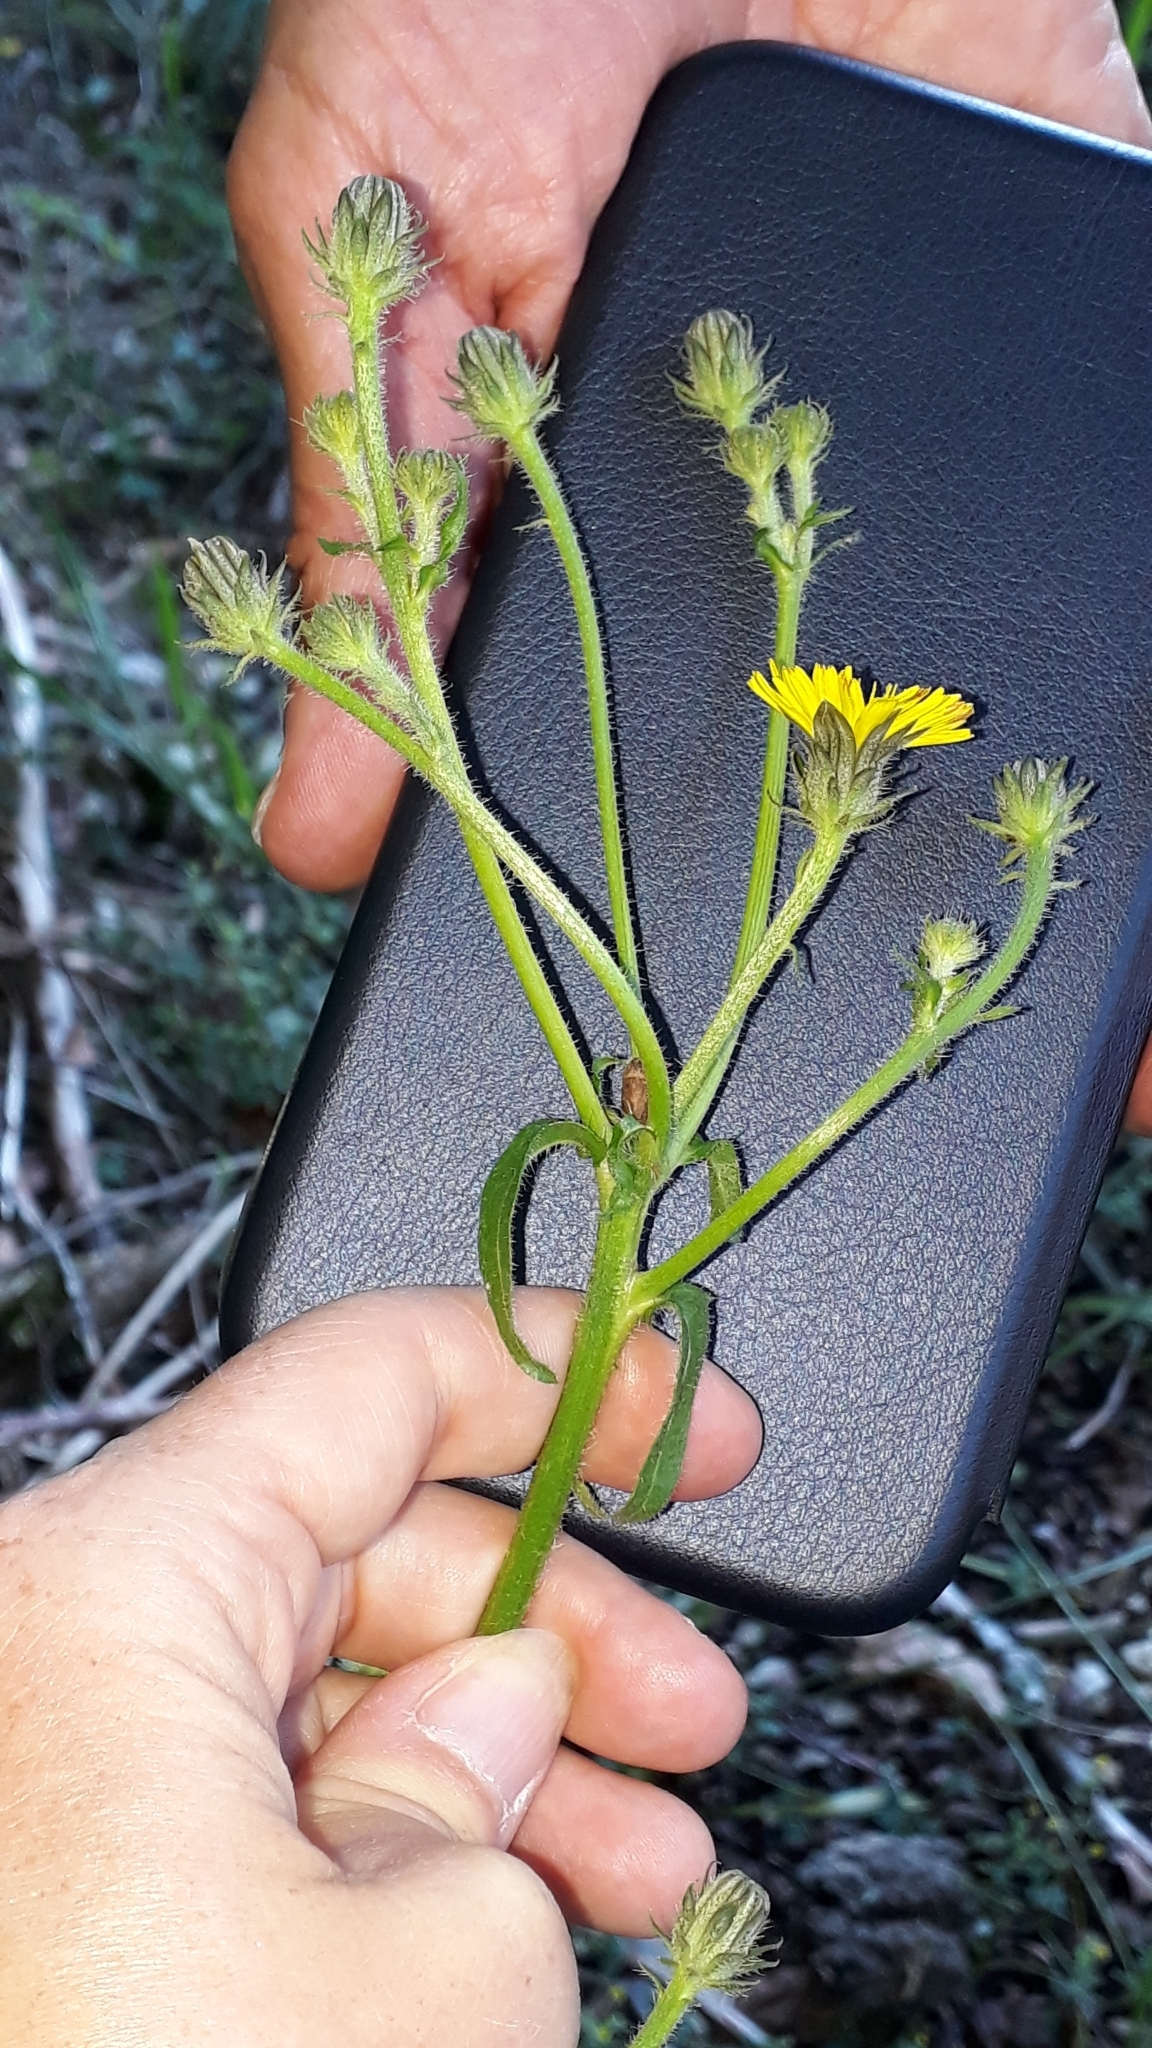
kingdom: Plantae
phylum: Tracheophyta
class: Magnoliopsida
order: Asterales
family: Asteraceae
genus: Picris
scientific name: Picris hieracioides
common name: Hawkweed oxtongue
